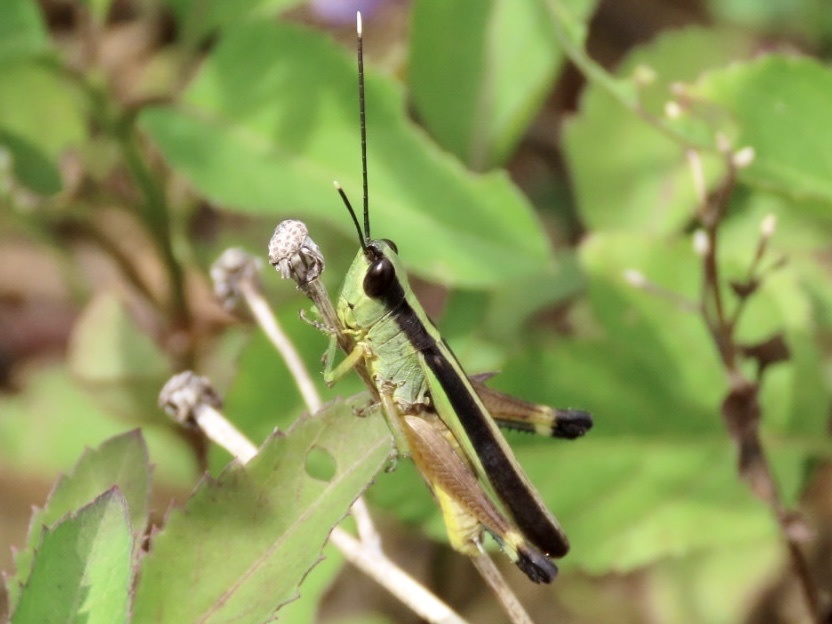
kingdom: Animalia
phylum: Arthropoda
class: Insecta
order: Orthoptera
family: Acrididae
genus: Ceracris
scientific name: Ceracris fasciata
